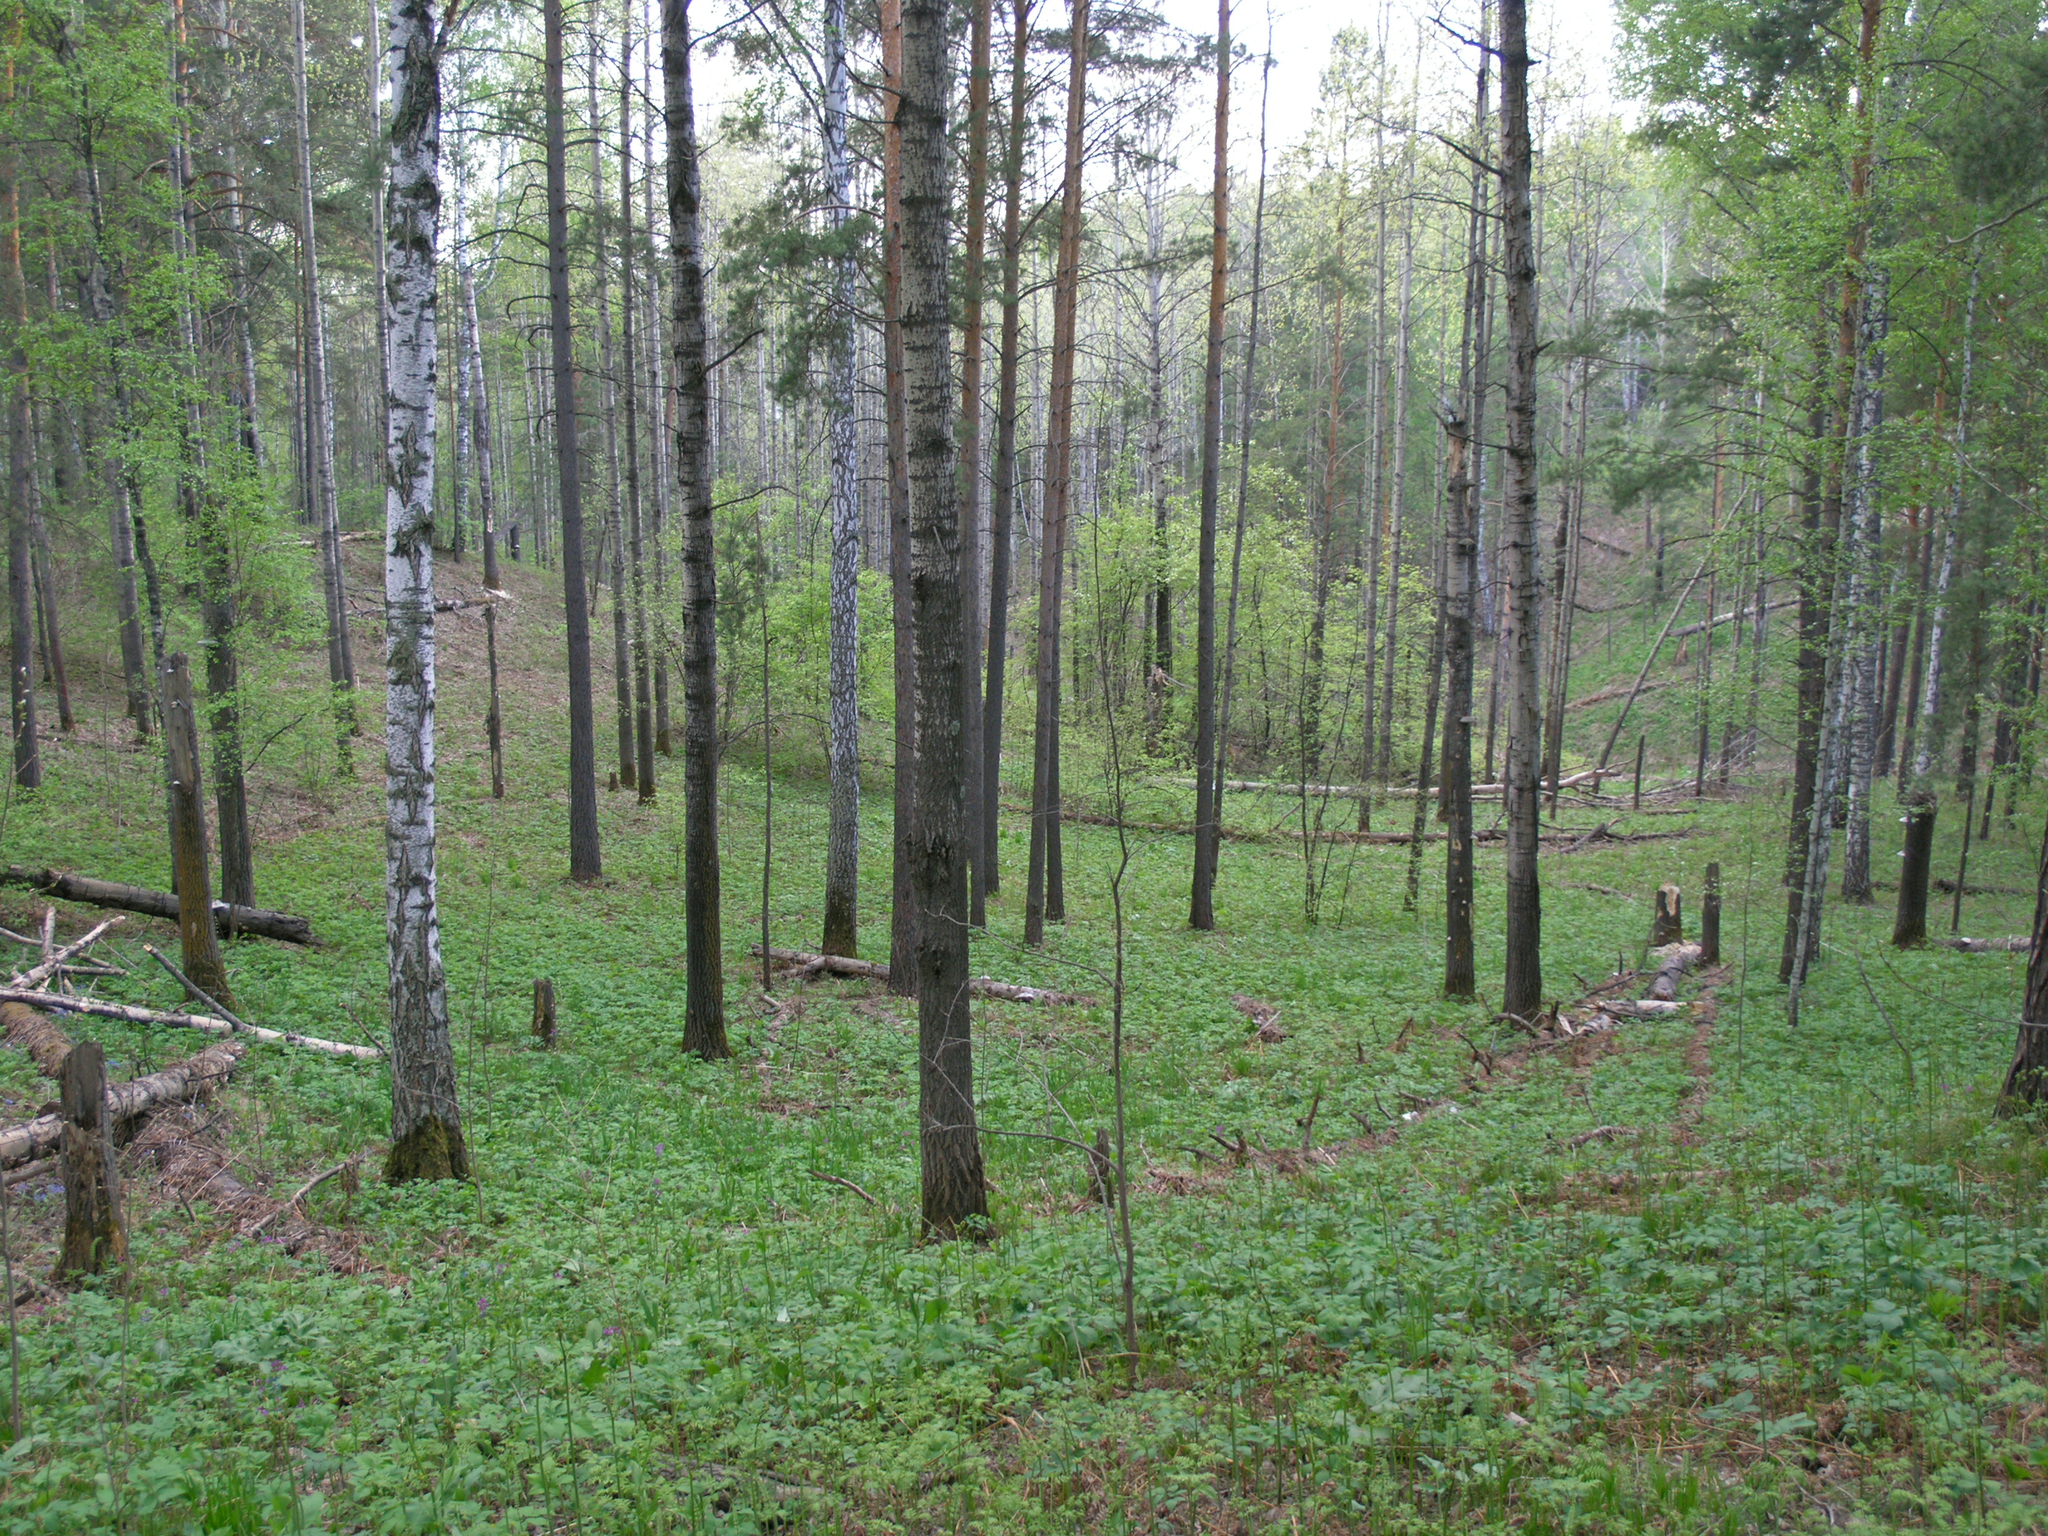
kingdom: Plantae
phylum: Tracheophyta
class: Magnoliopsida
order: Malpighiales
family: Salicaceae
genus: Populus
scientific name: Populus tremula
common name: European aspen
